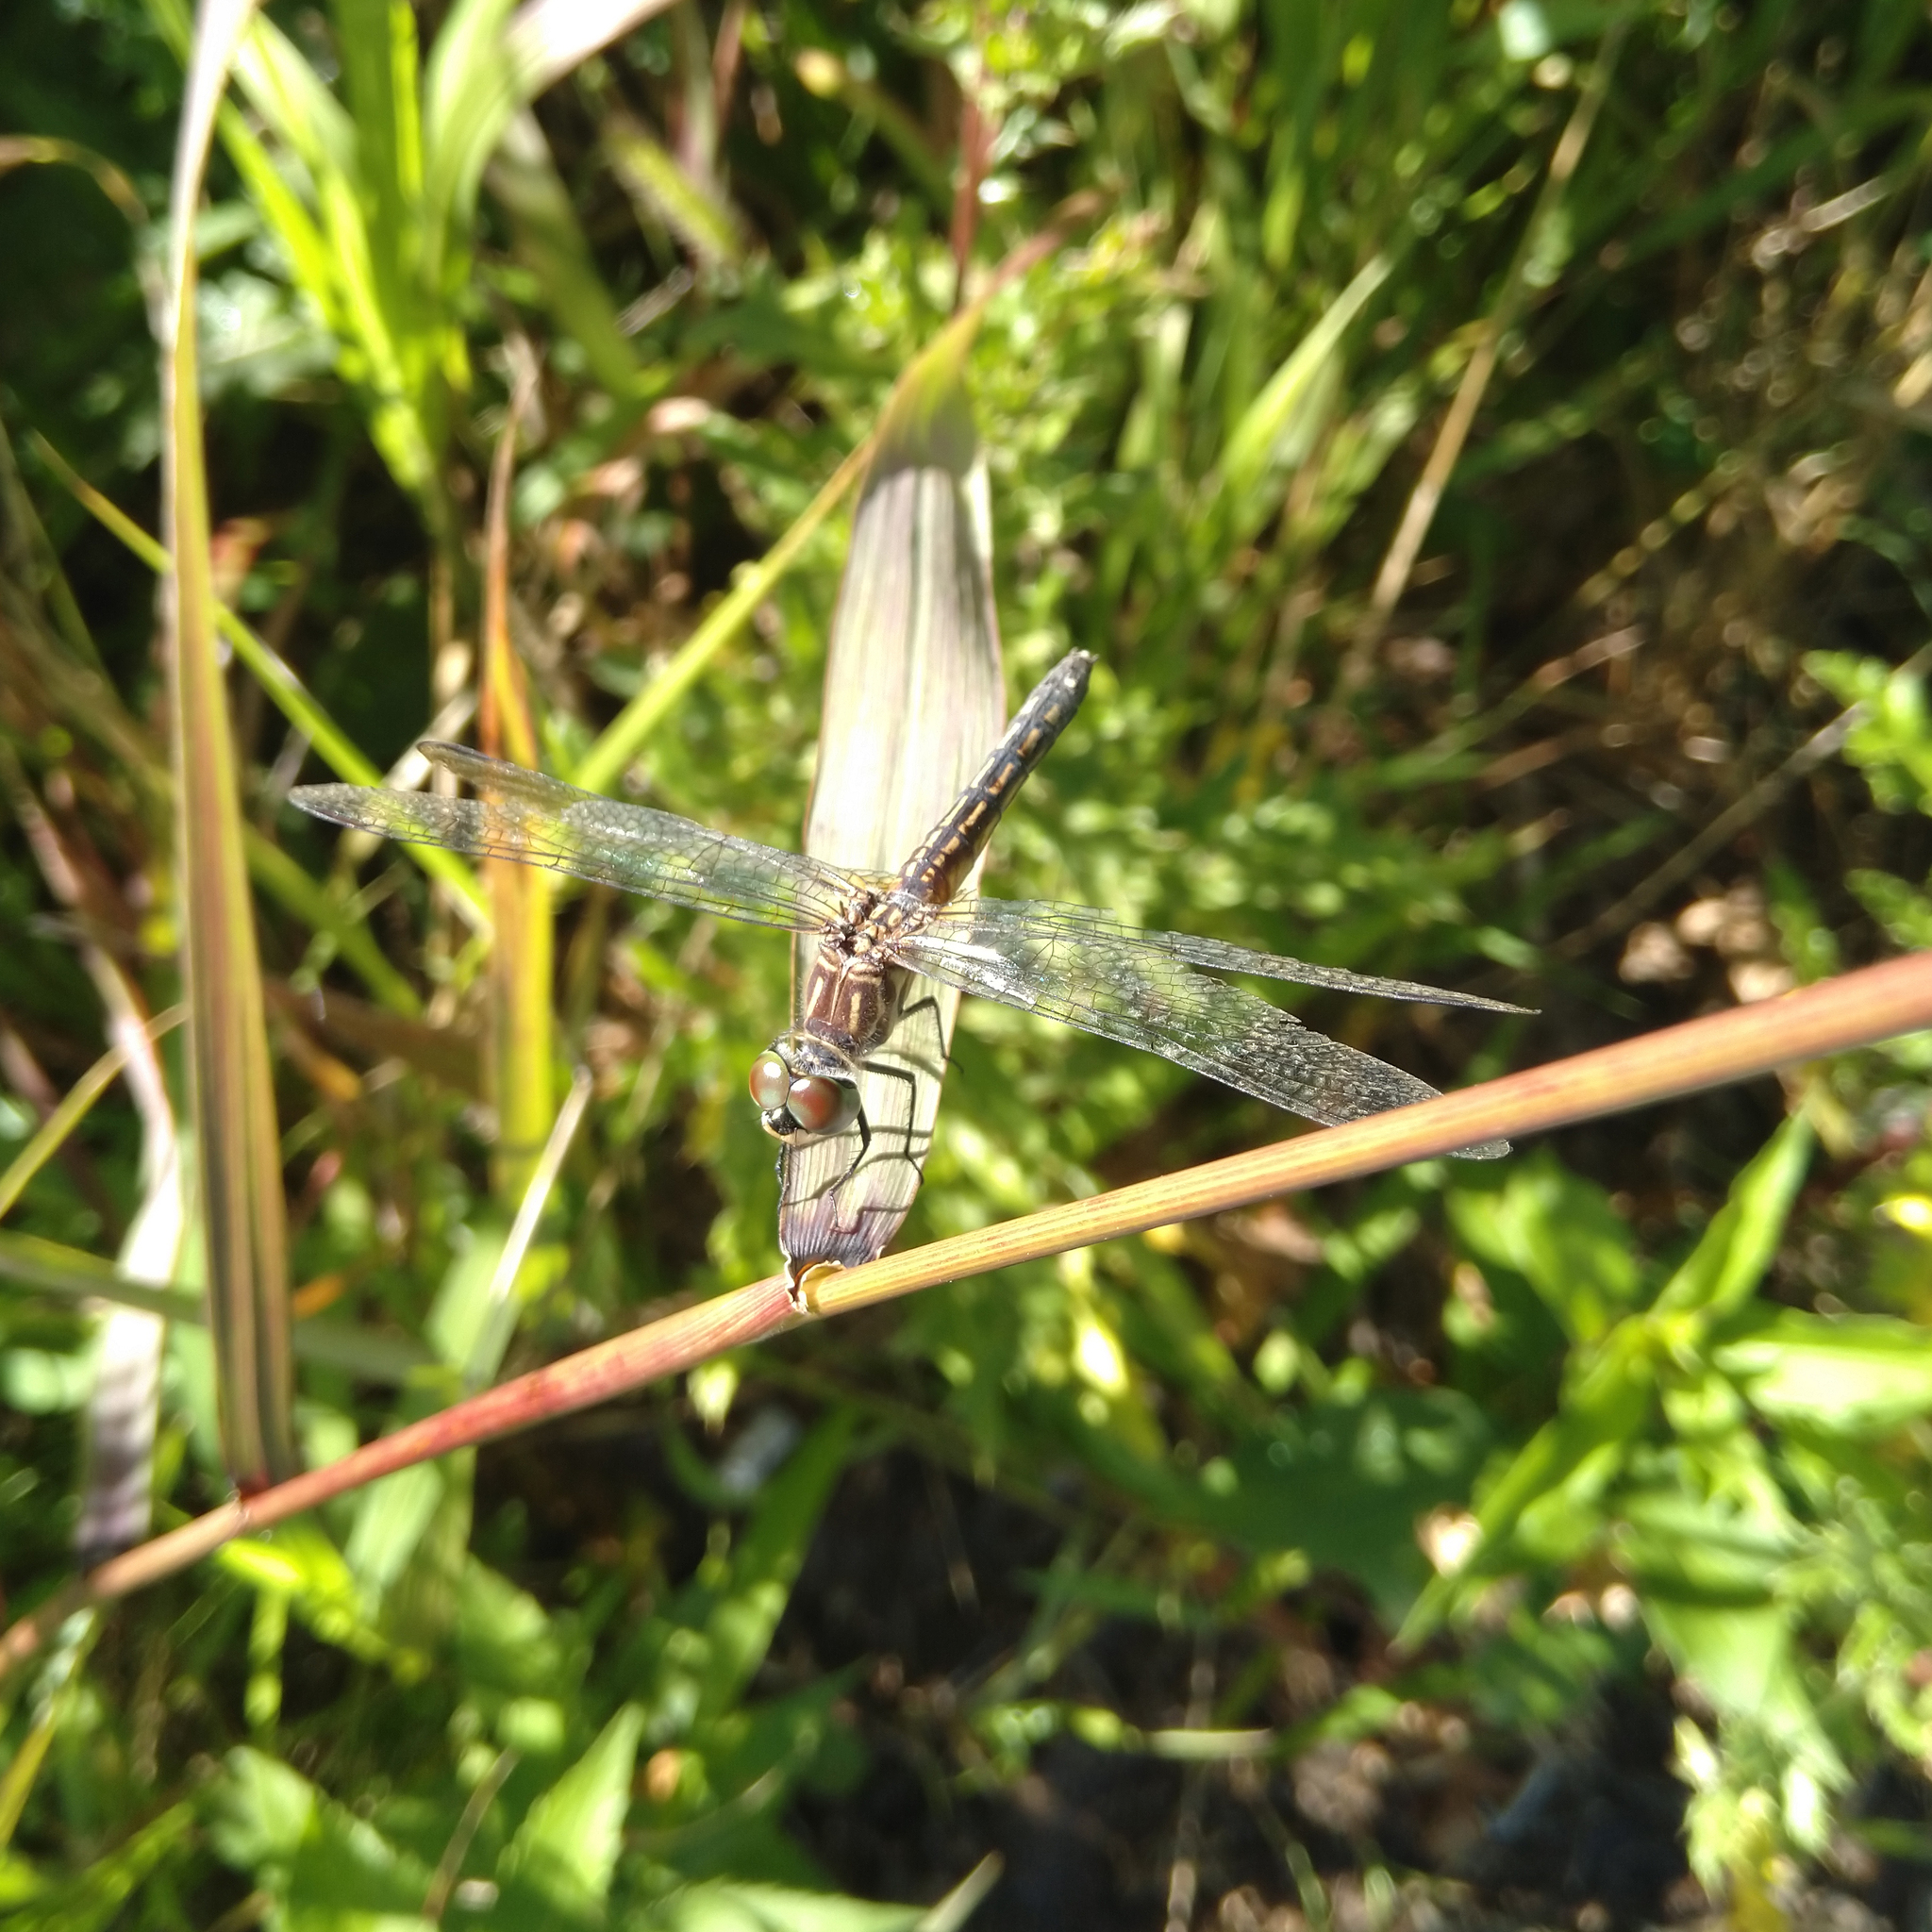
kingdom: Animalia
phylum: Arthropoda
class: Insecta
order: Odonata
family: Libellulidae
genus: Pachydiplax
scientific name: Pachydiplax longipennis
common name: Blue dasher
